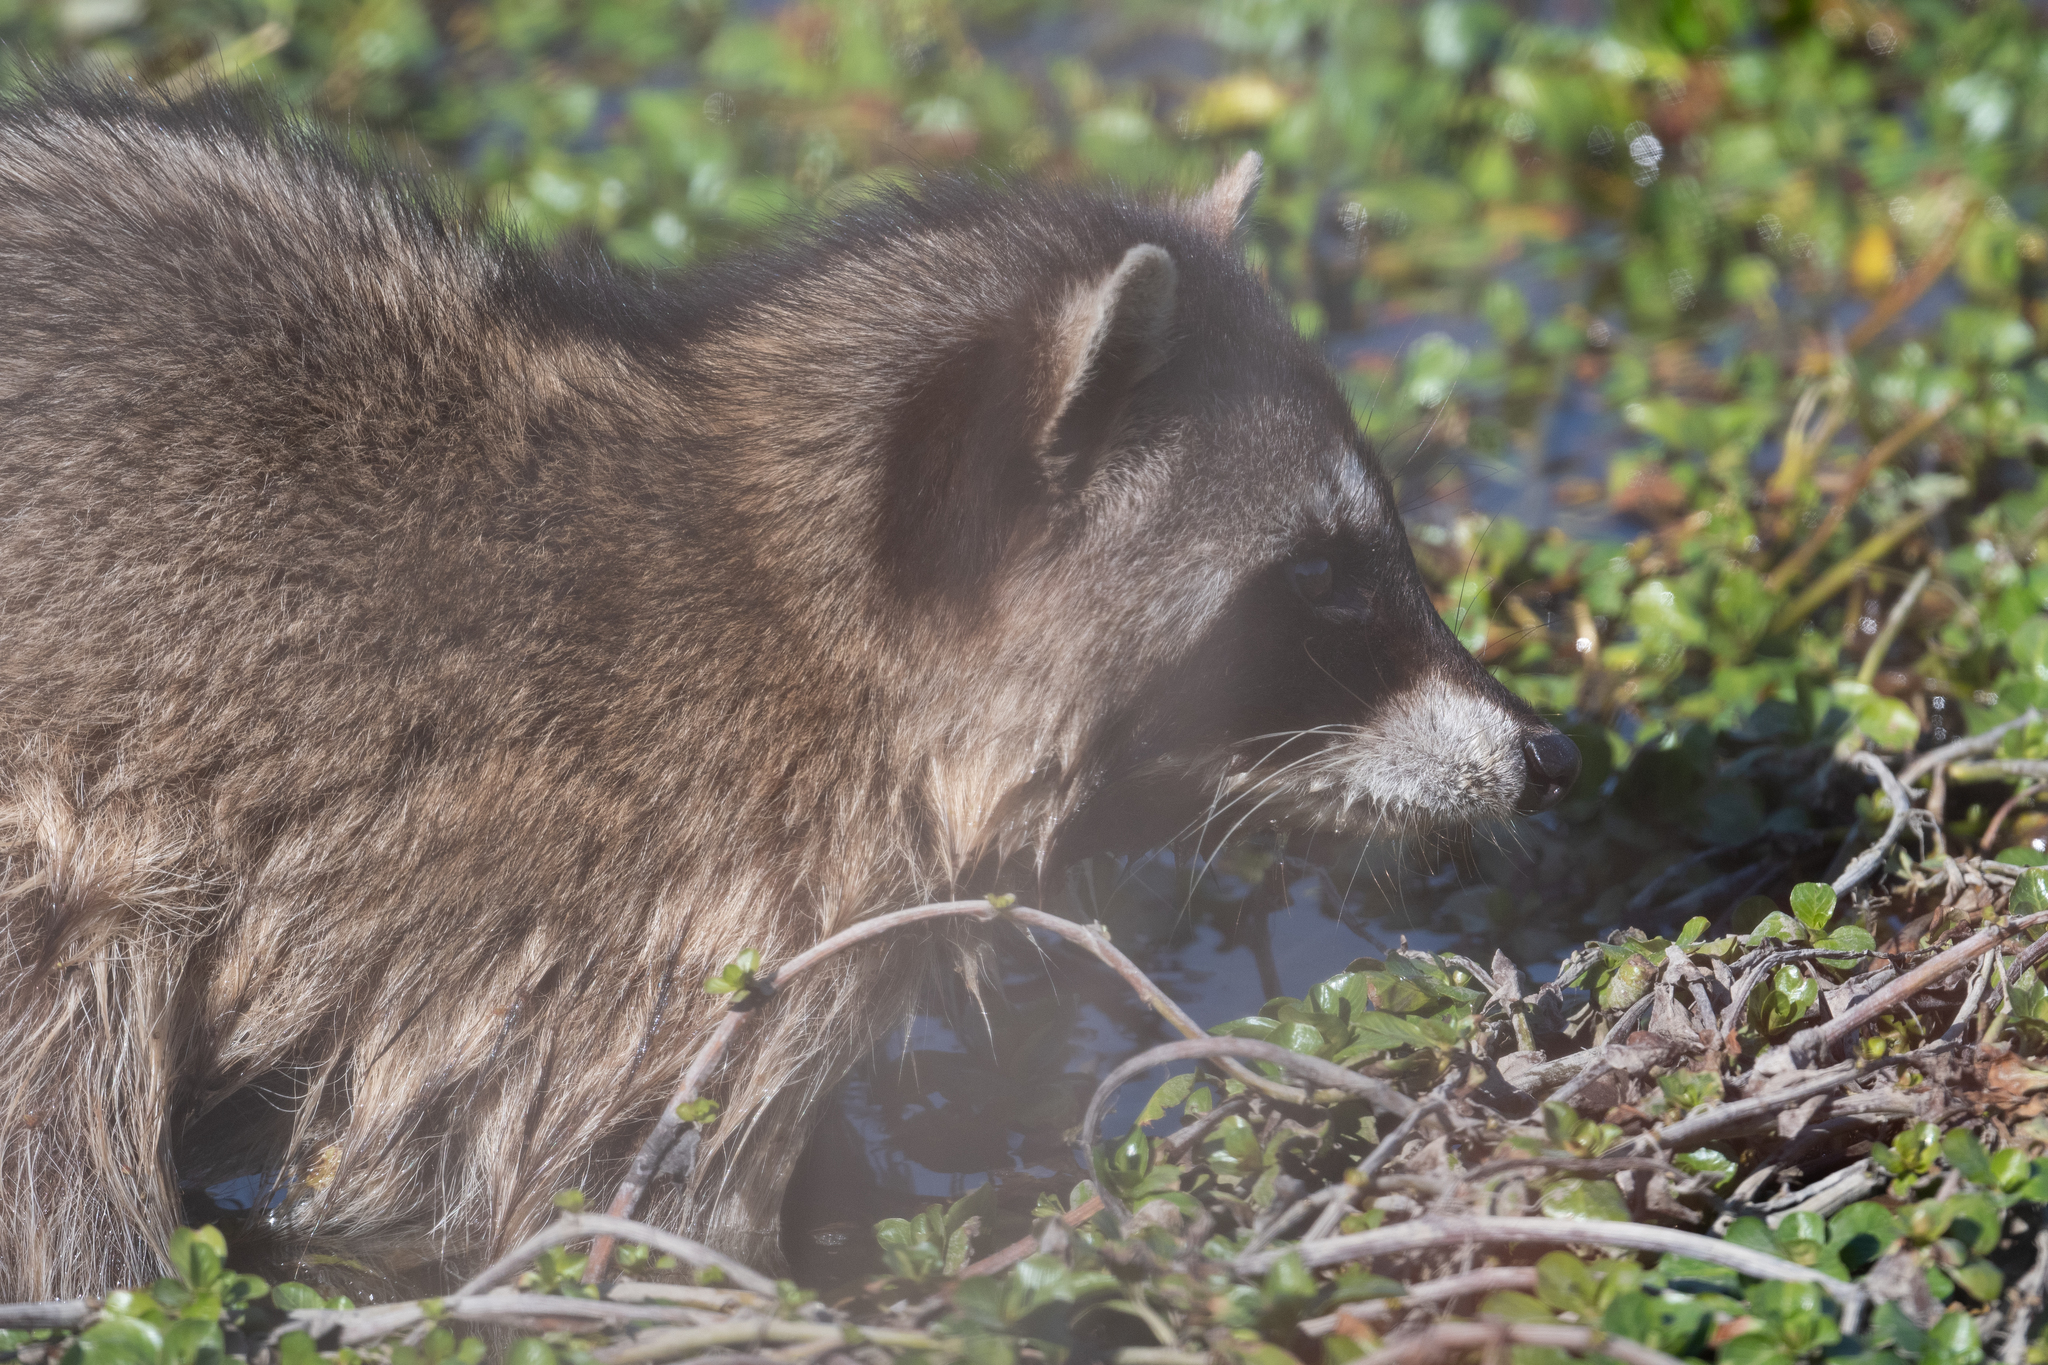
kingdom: Animalia
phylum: Chordata
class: Mammalia
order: Carnivora
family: Procyonidae
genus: Procyon
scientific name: Procyon lotor
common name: Raccoon
